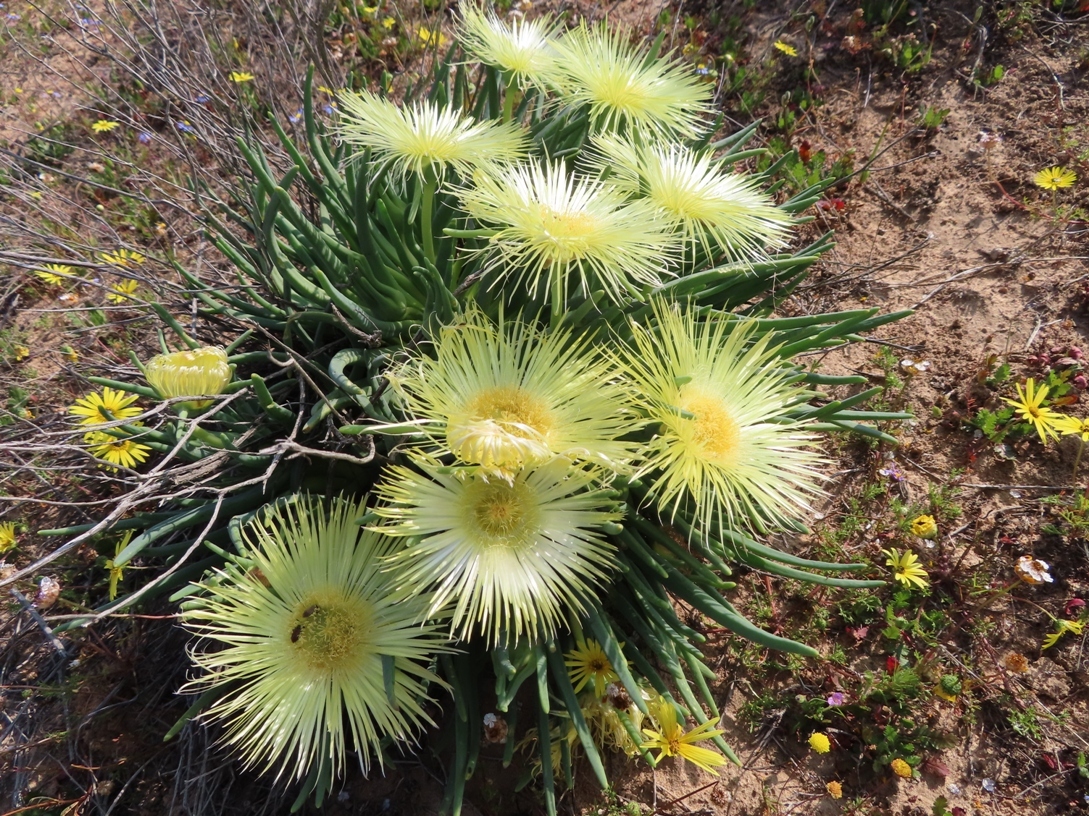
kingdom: Plantae
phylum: Tracheophyta
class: Magnoliopsida
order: Caryophyllales
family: Aizoaceae
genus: Conicosia
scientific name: Conicosia elongata
